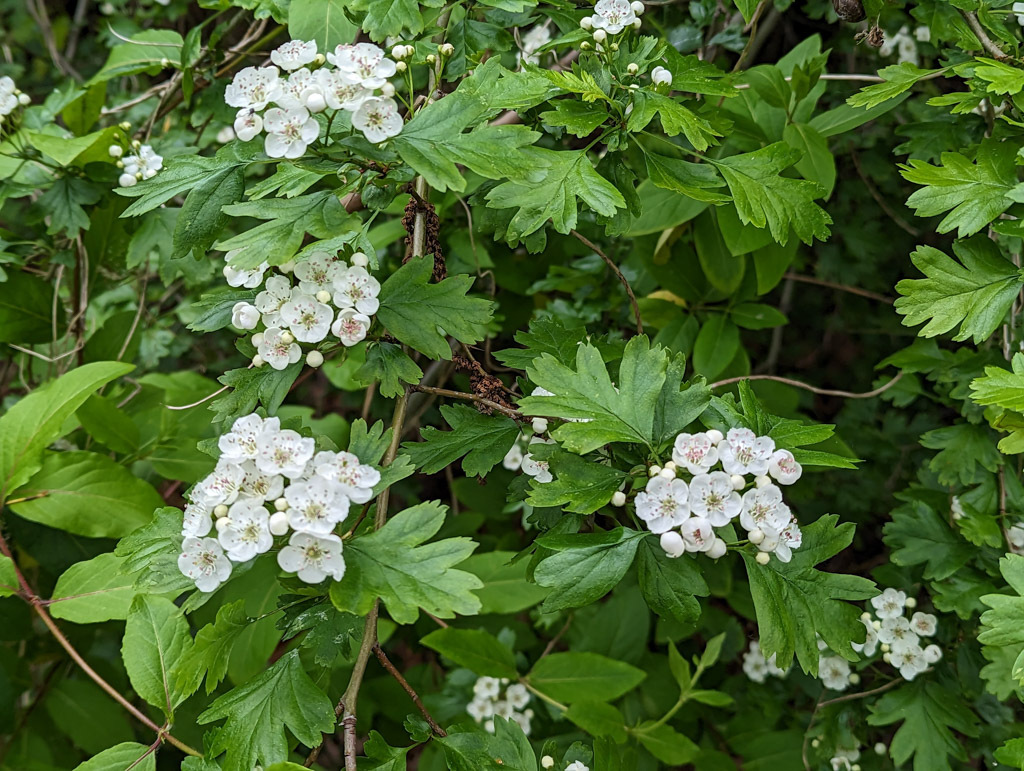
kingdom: Plantae
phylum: Tracheophyta
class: Magnoliopsida
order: Rosales
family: Rosaceae
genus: Crataegus
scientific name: Crataegus monogyna
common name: Hawthorn
